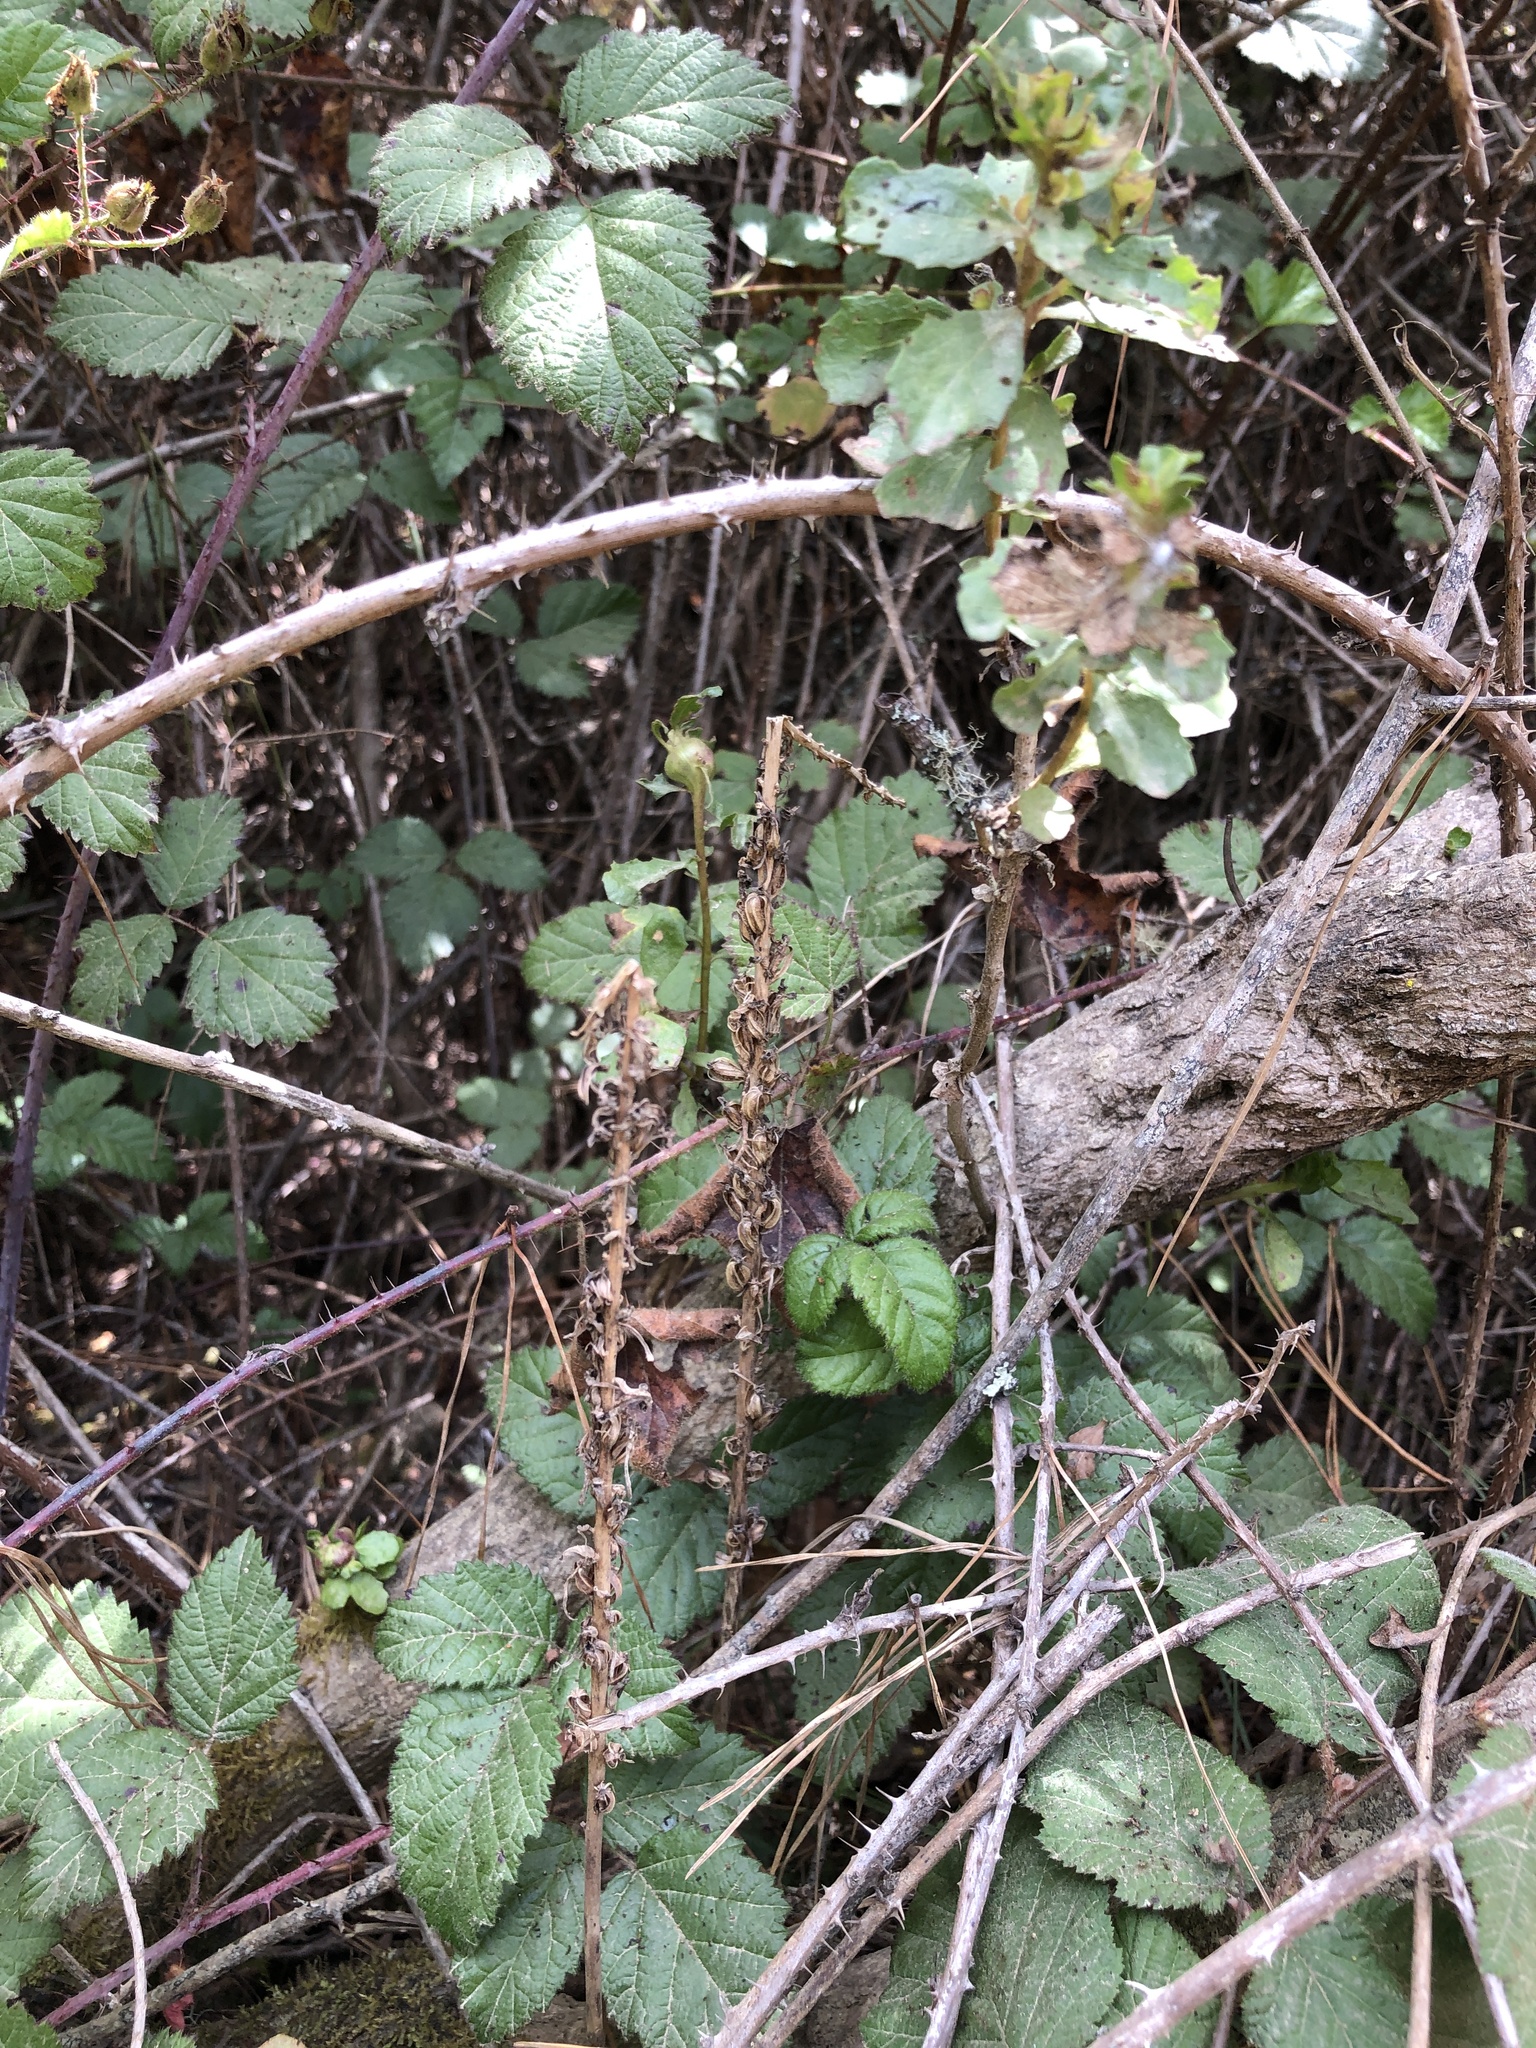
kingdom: Plantae
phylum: Tracheophyta
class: Liliopsida
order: Asparagales
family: Orchidaceae
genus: Platanthera
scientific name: Platanthera elongata
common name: Dense-flowered rein orchid
